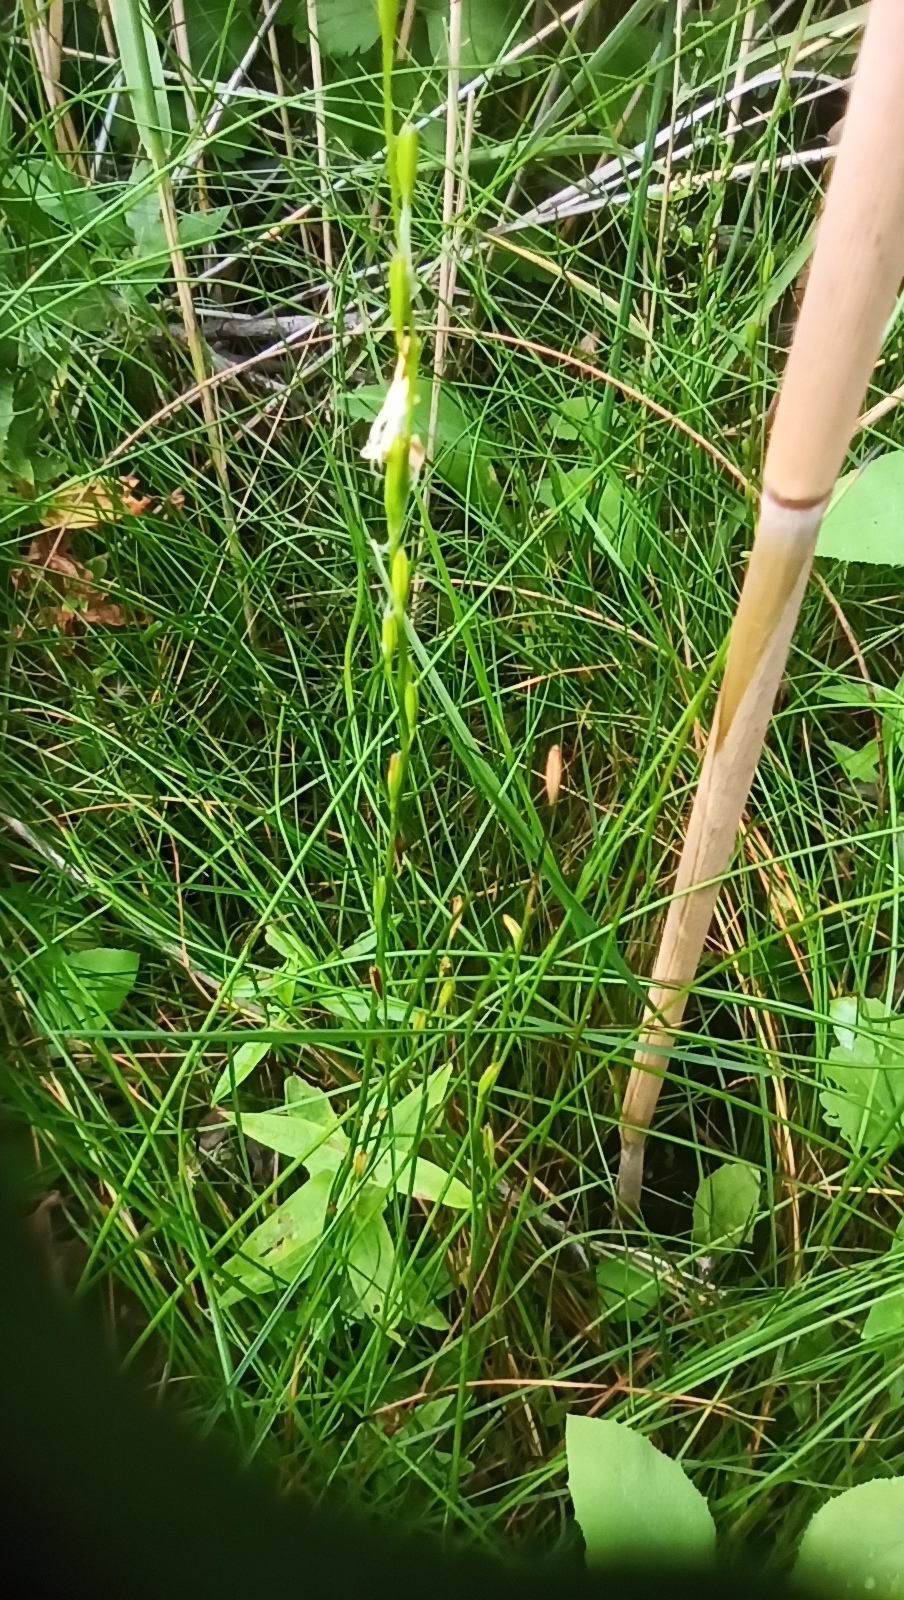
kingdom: Plantae
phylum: Tracheophyta
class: Liliopsida
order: Alismatales
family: Juncaginaceae
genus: Triglochin
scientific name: Triglochin palustris
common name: Marsh arrowgrass
